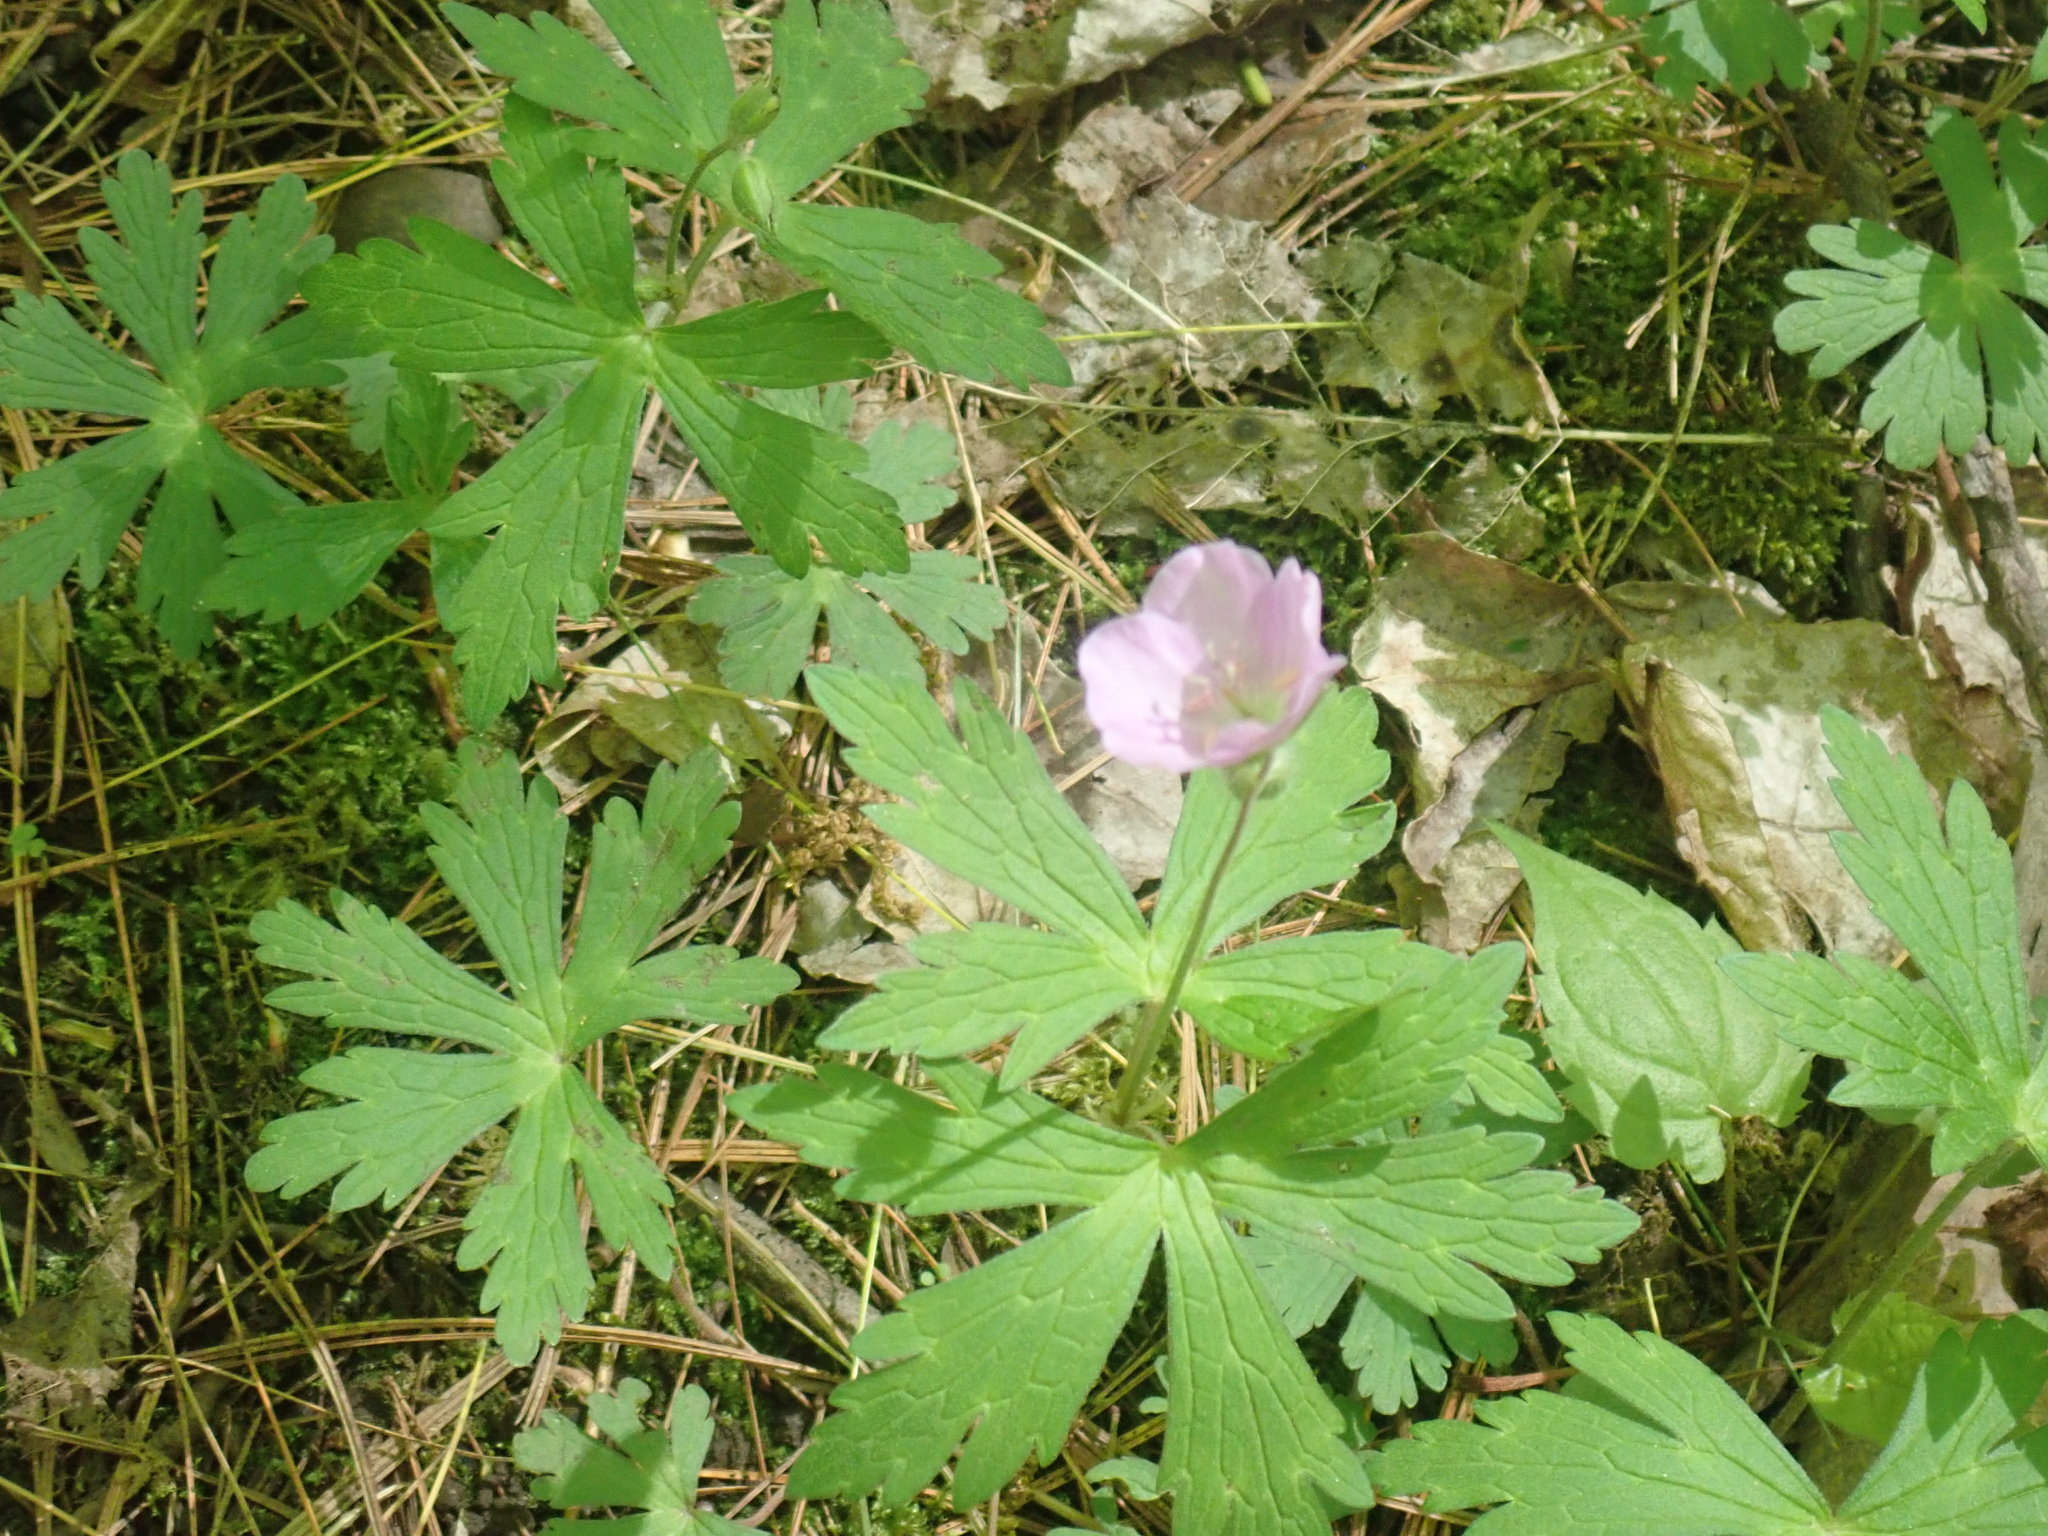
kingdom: Plantae
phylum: Tracheophyta
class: Magnoliopsida
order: Geraniales
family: Geraniaceae
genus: Geranium
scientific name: Geranium maculatum
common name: Spotted geranium
